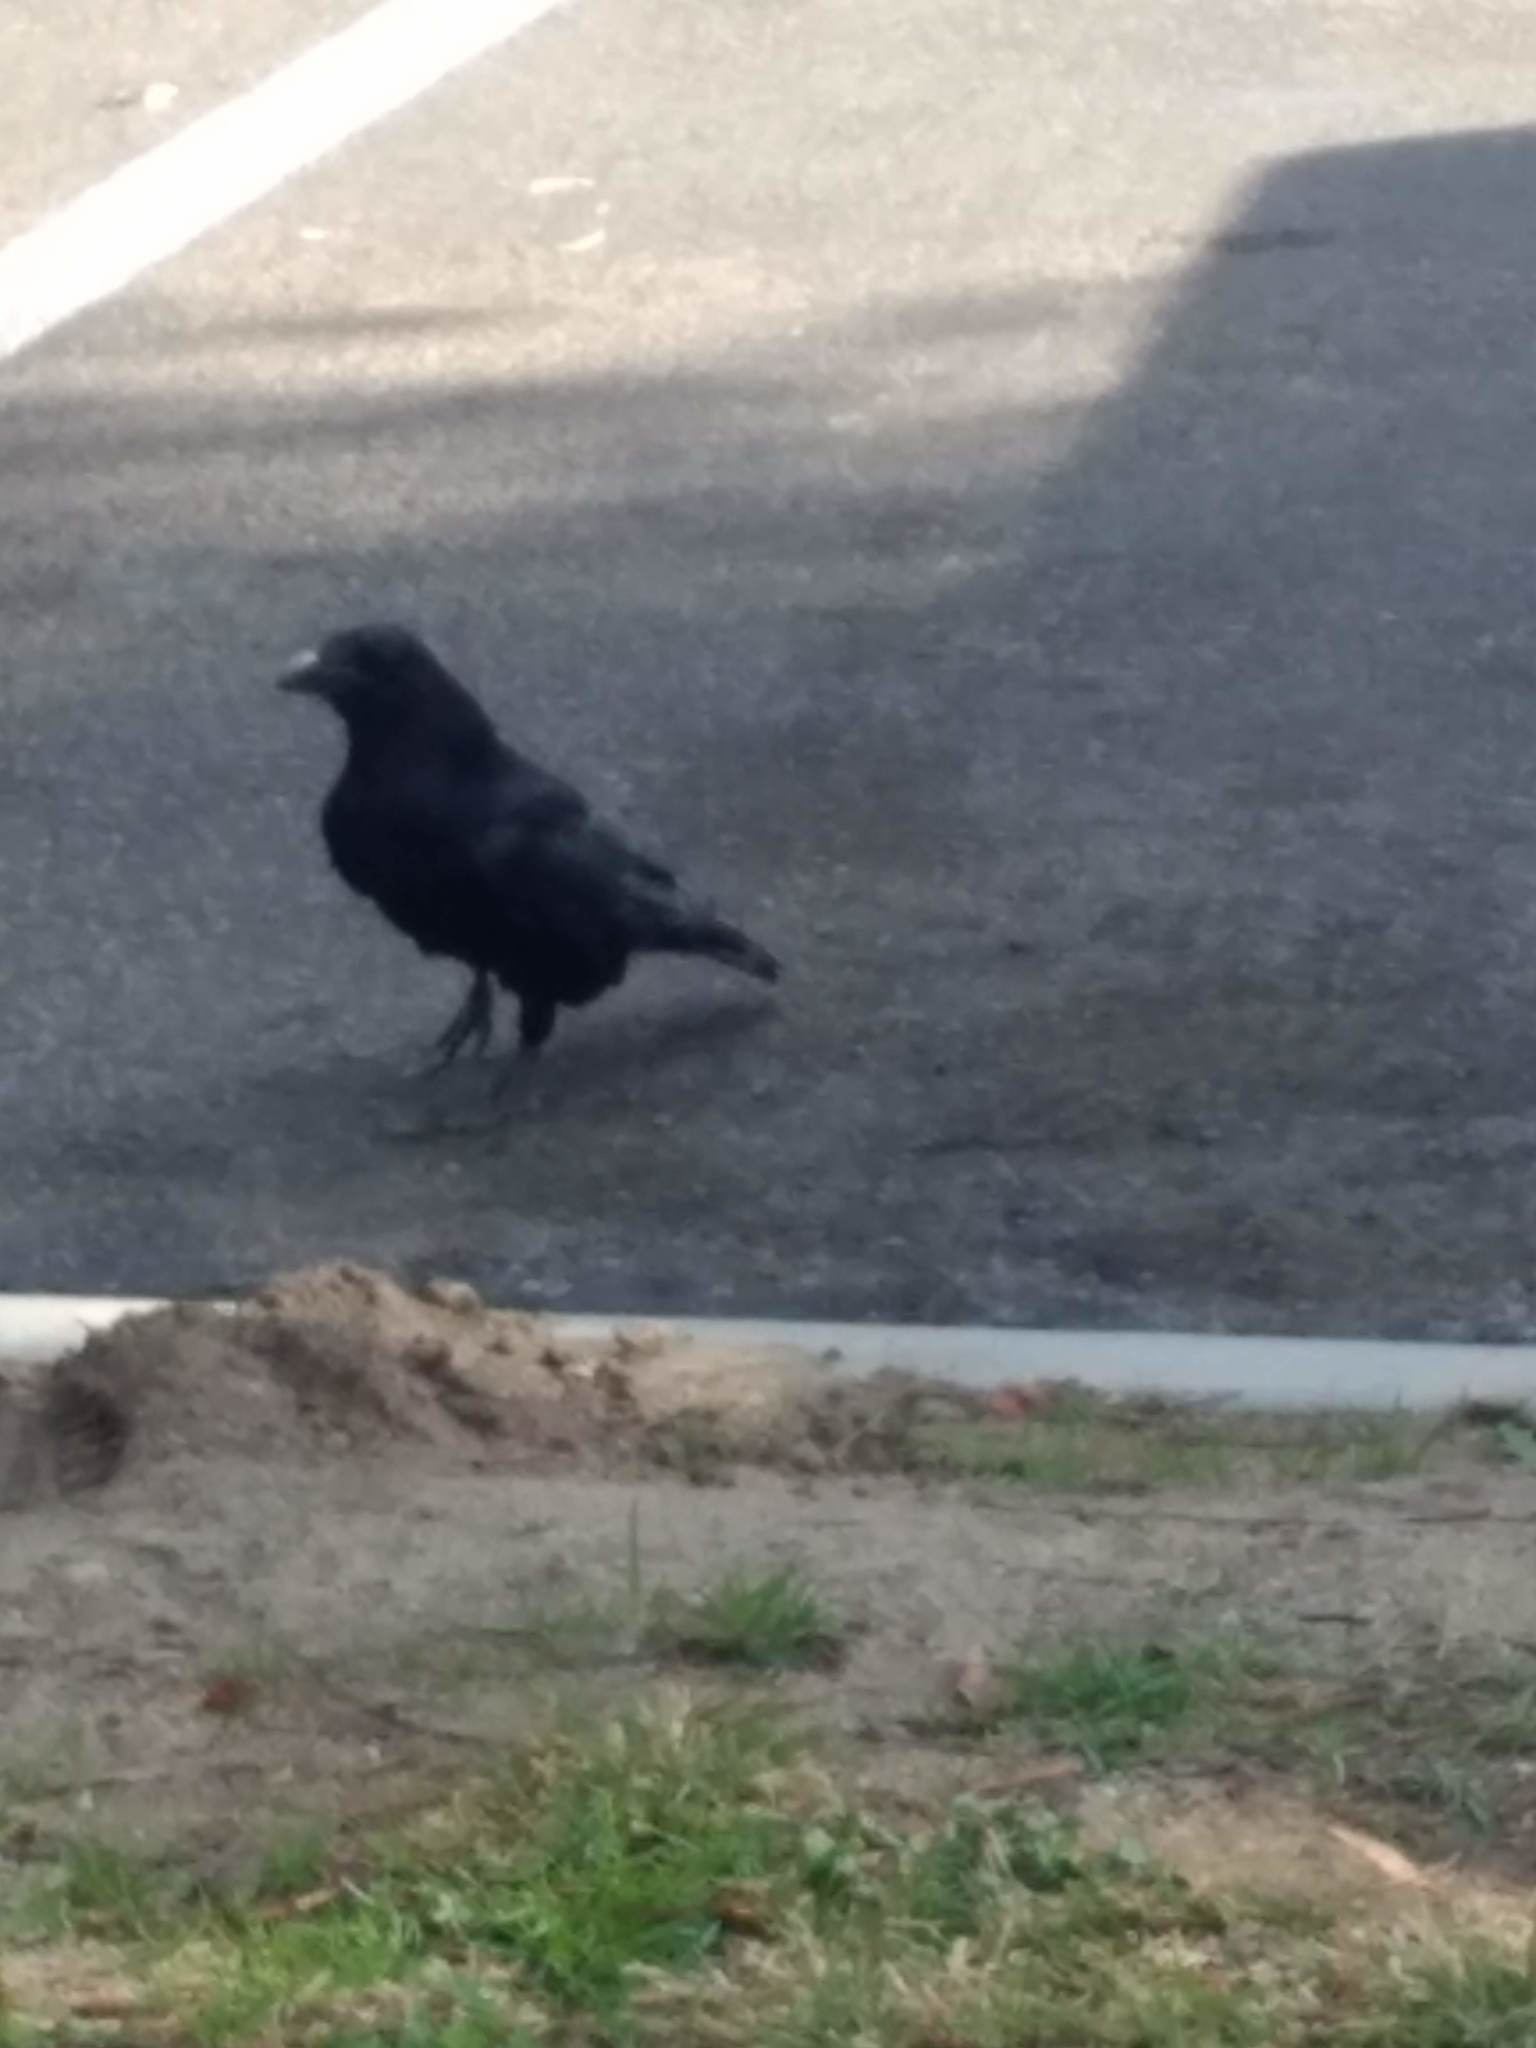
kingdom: Animalia
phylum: Chordata
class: Aves
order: Passeriformes
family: Corvidae
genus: Corvus
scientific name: Corvus brachyrhynchos
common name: American crow
